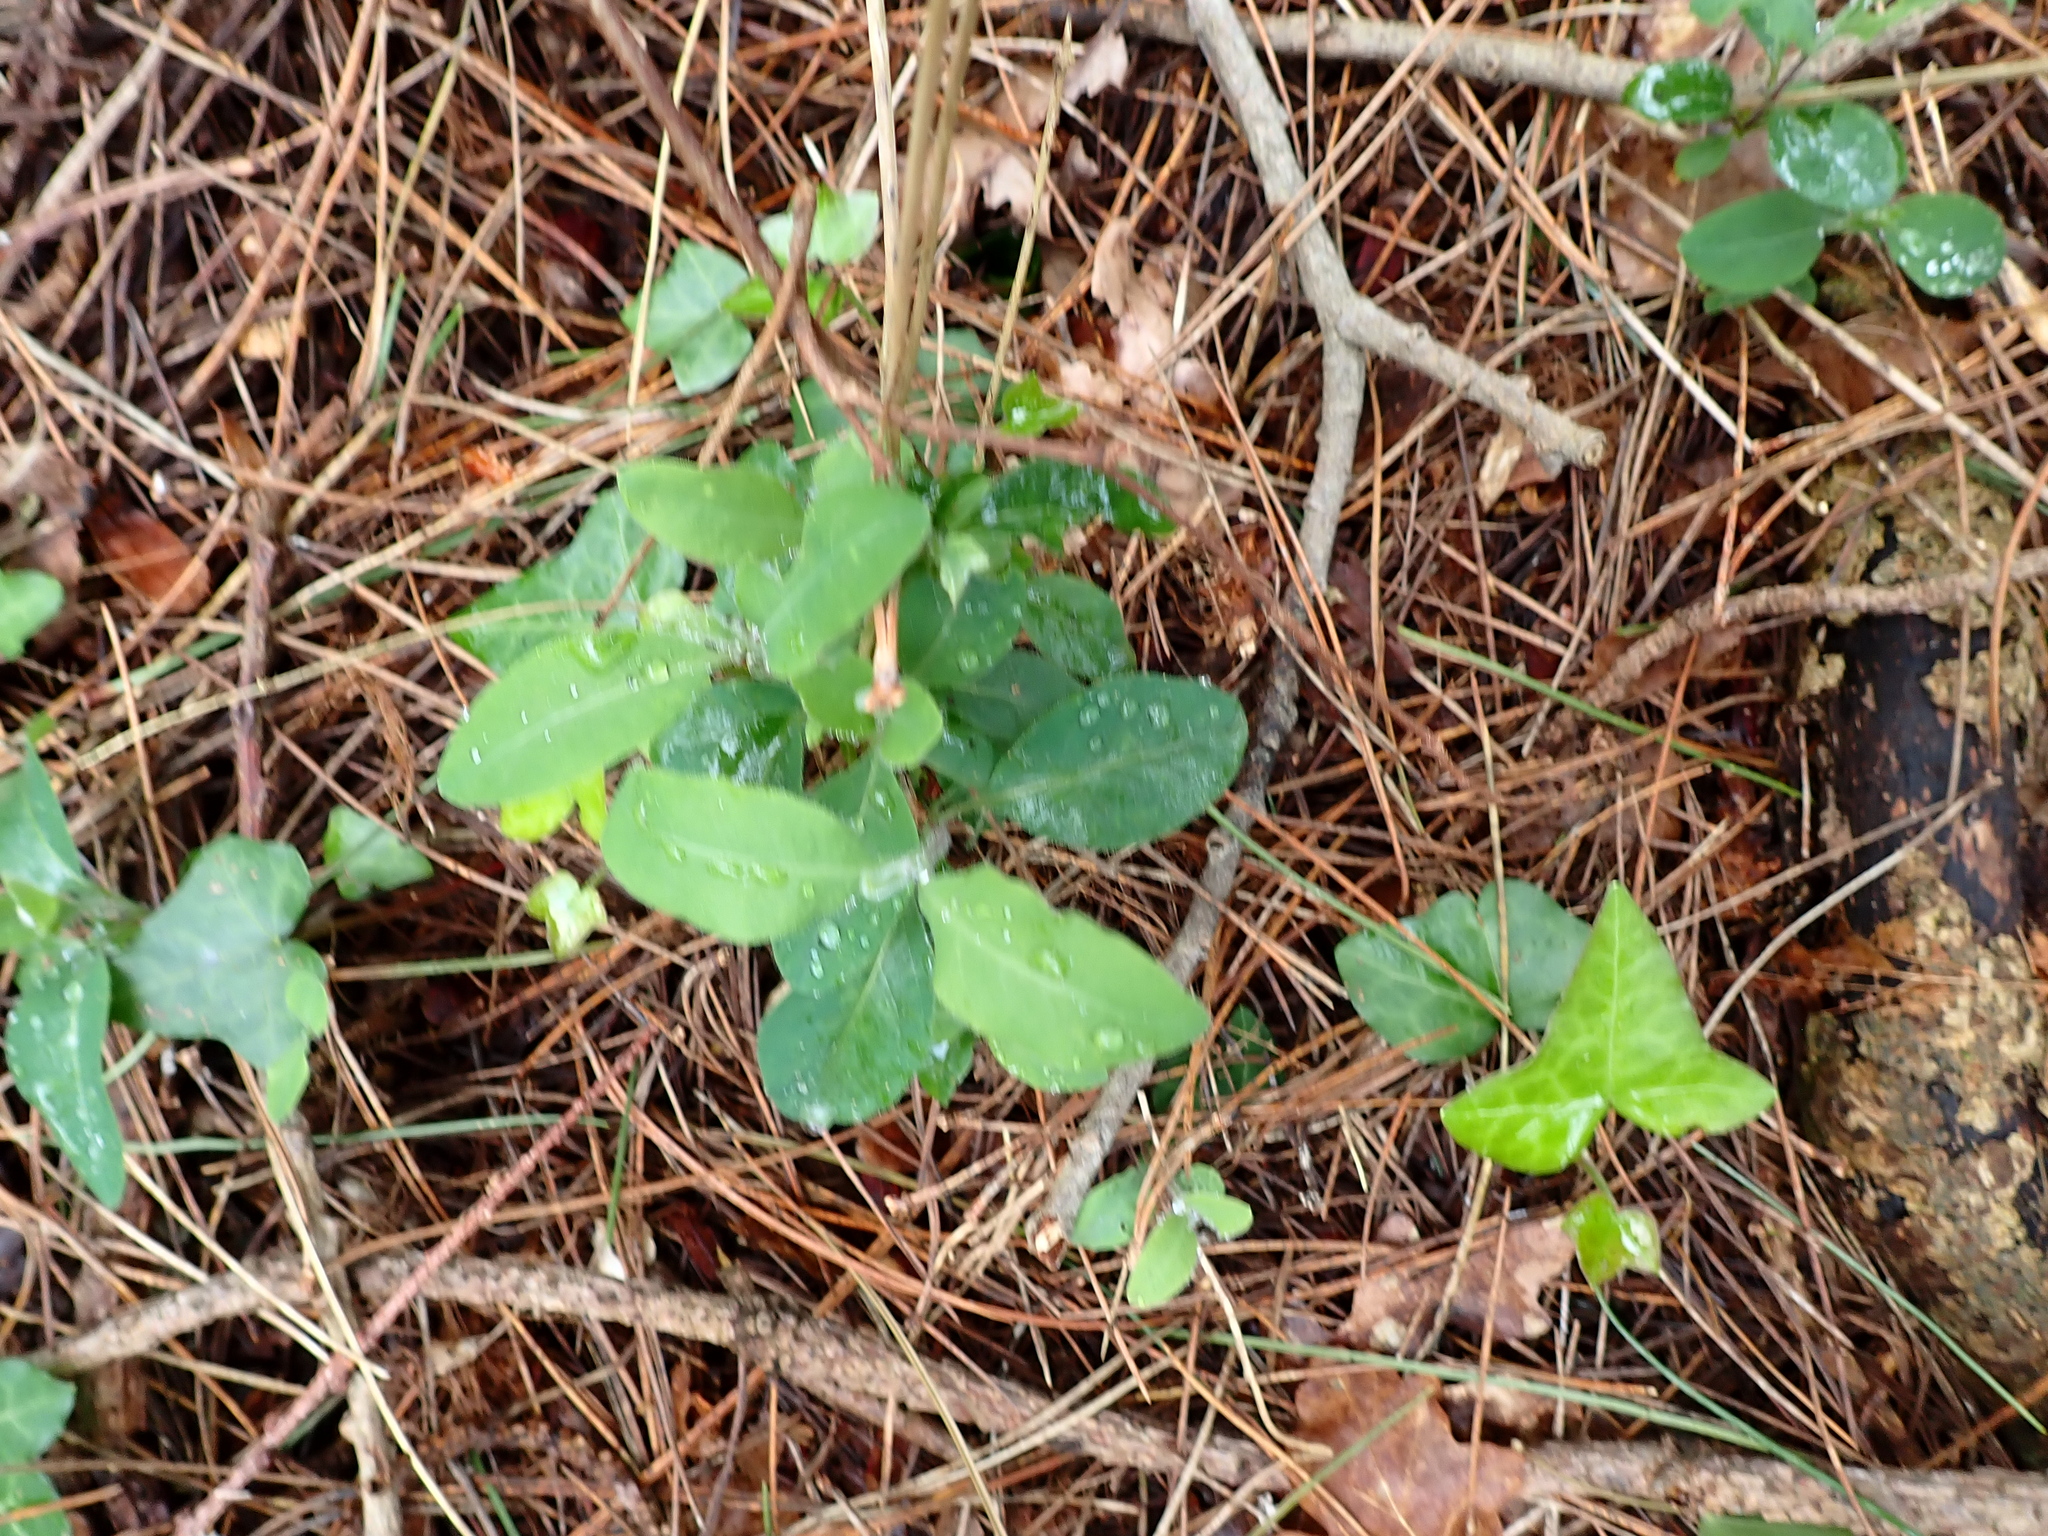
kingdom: Plantae
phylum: Tracheophyta
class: Magnoliopsida
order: Dipsacales
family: Caprifoliaceae
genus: Lonicera
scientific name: Lonicera periclymenum
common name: European honeysuckle
